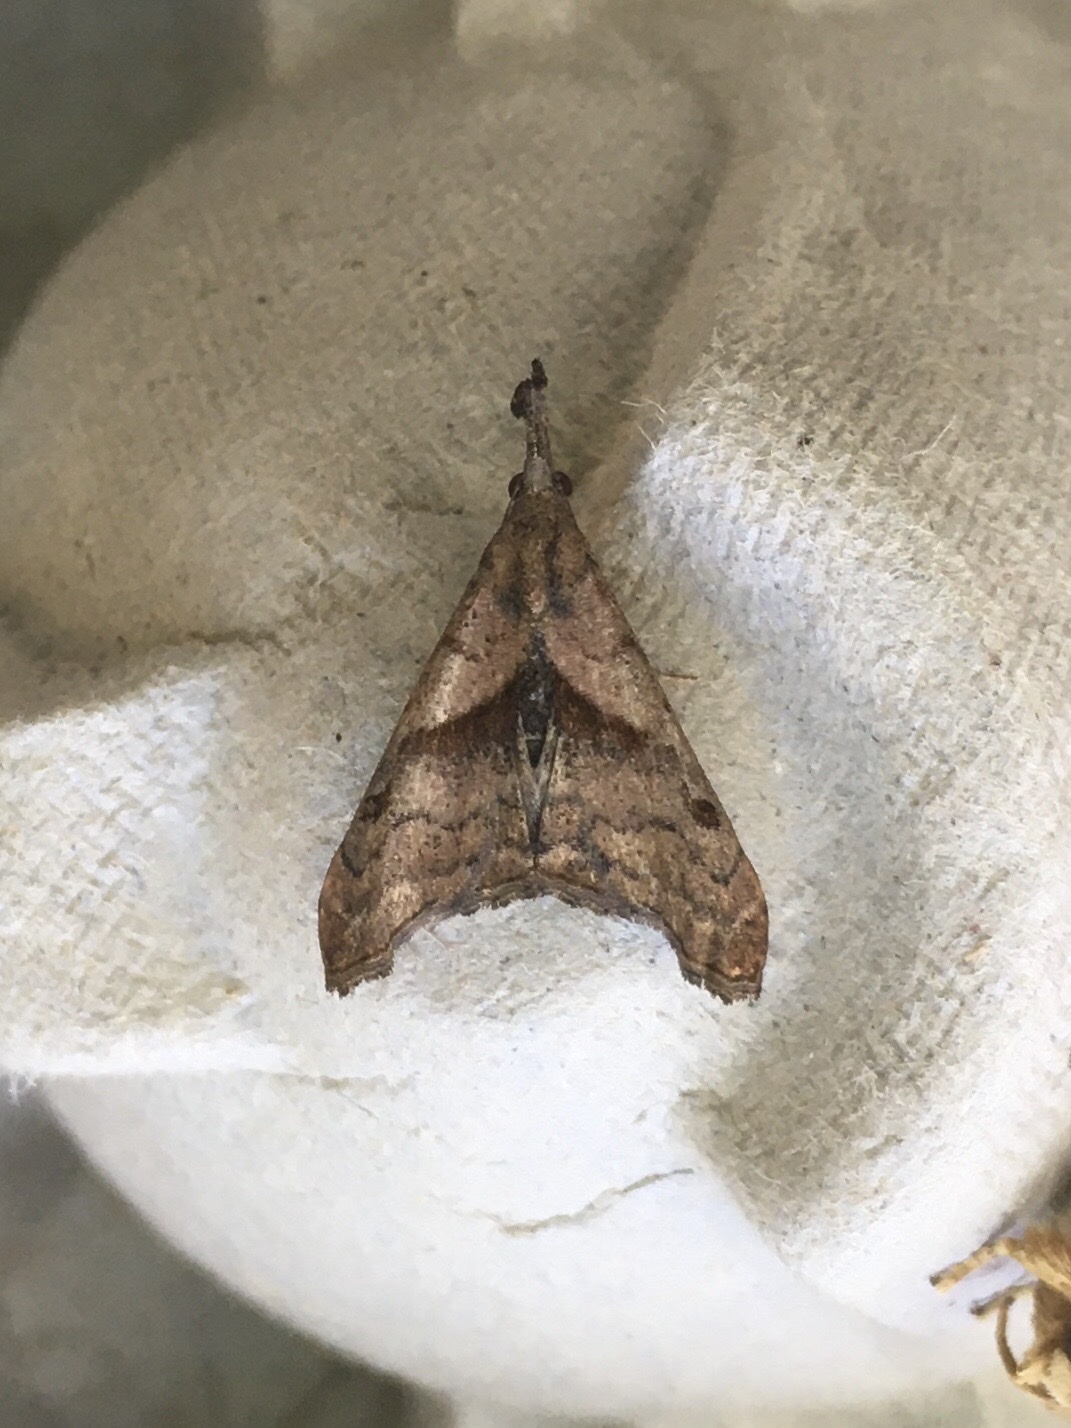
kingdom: Animalia
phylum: Arthropoda
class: Insecta
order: Lepidoptera
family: Erebidae
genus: Palthis
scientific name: Palthis angulalis
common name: Dark-spotted palthis moth
